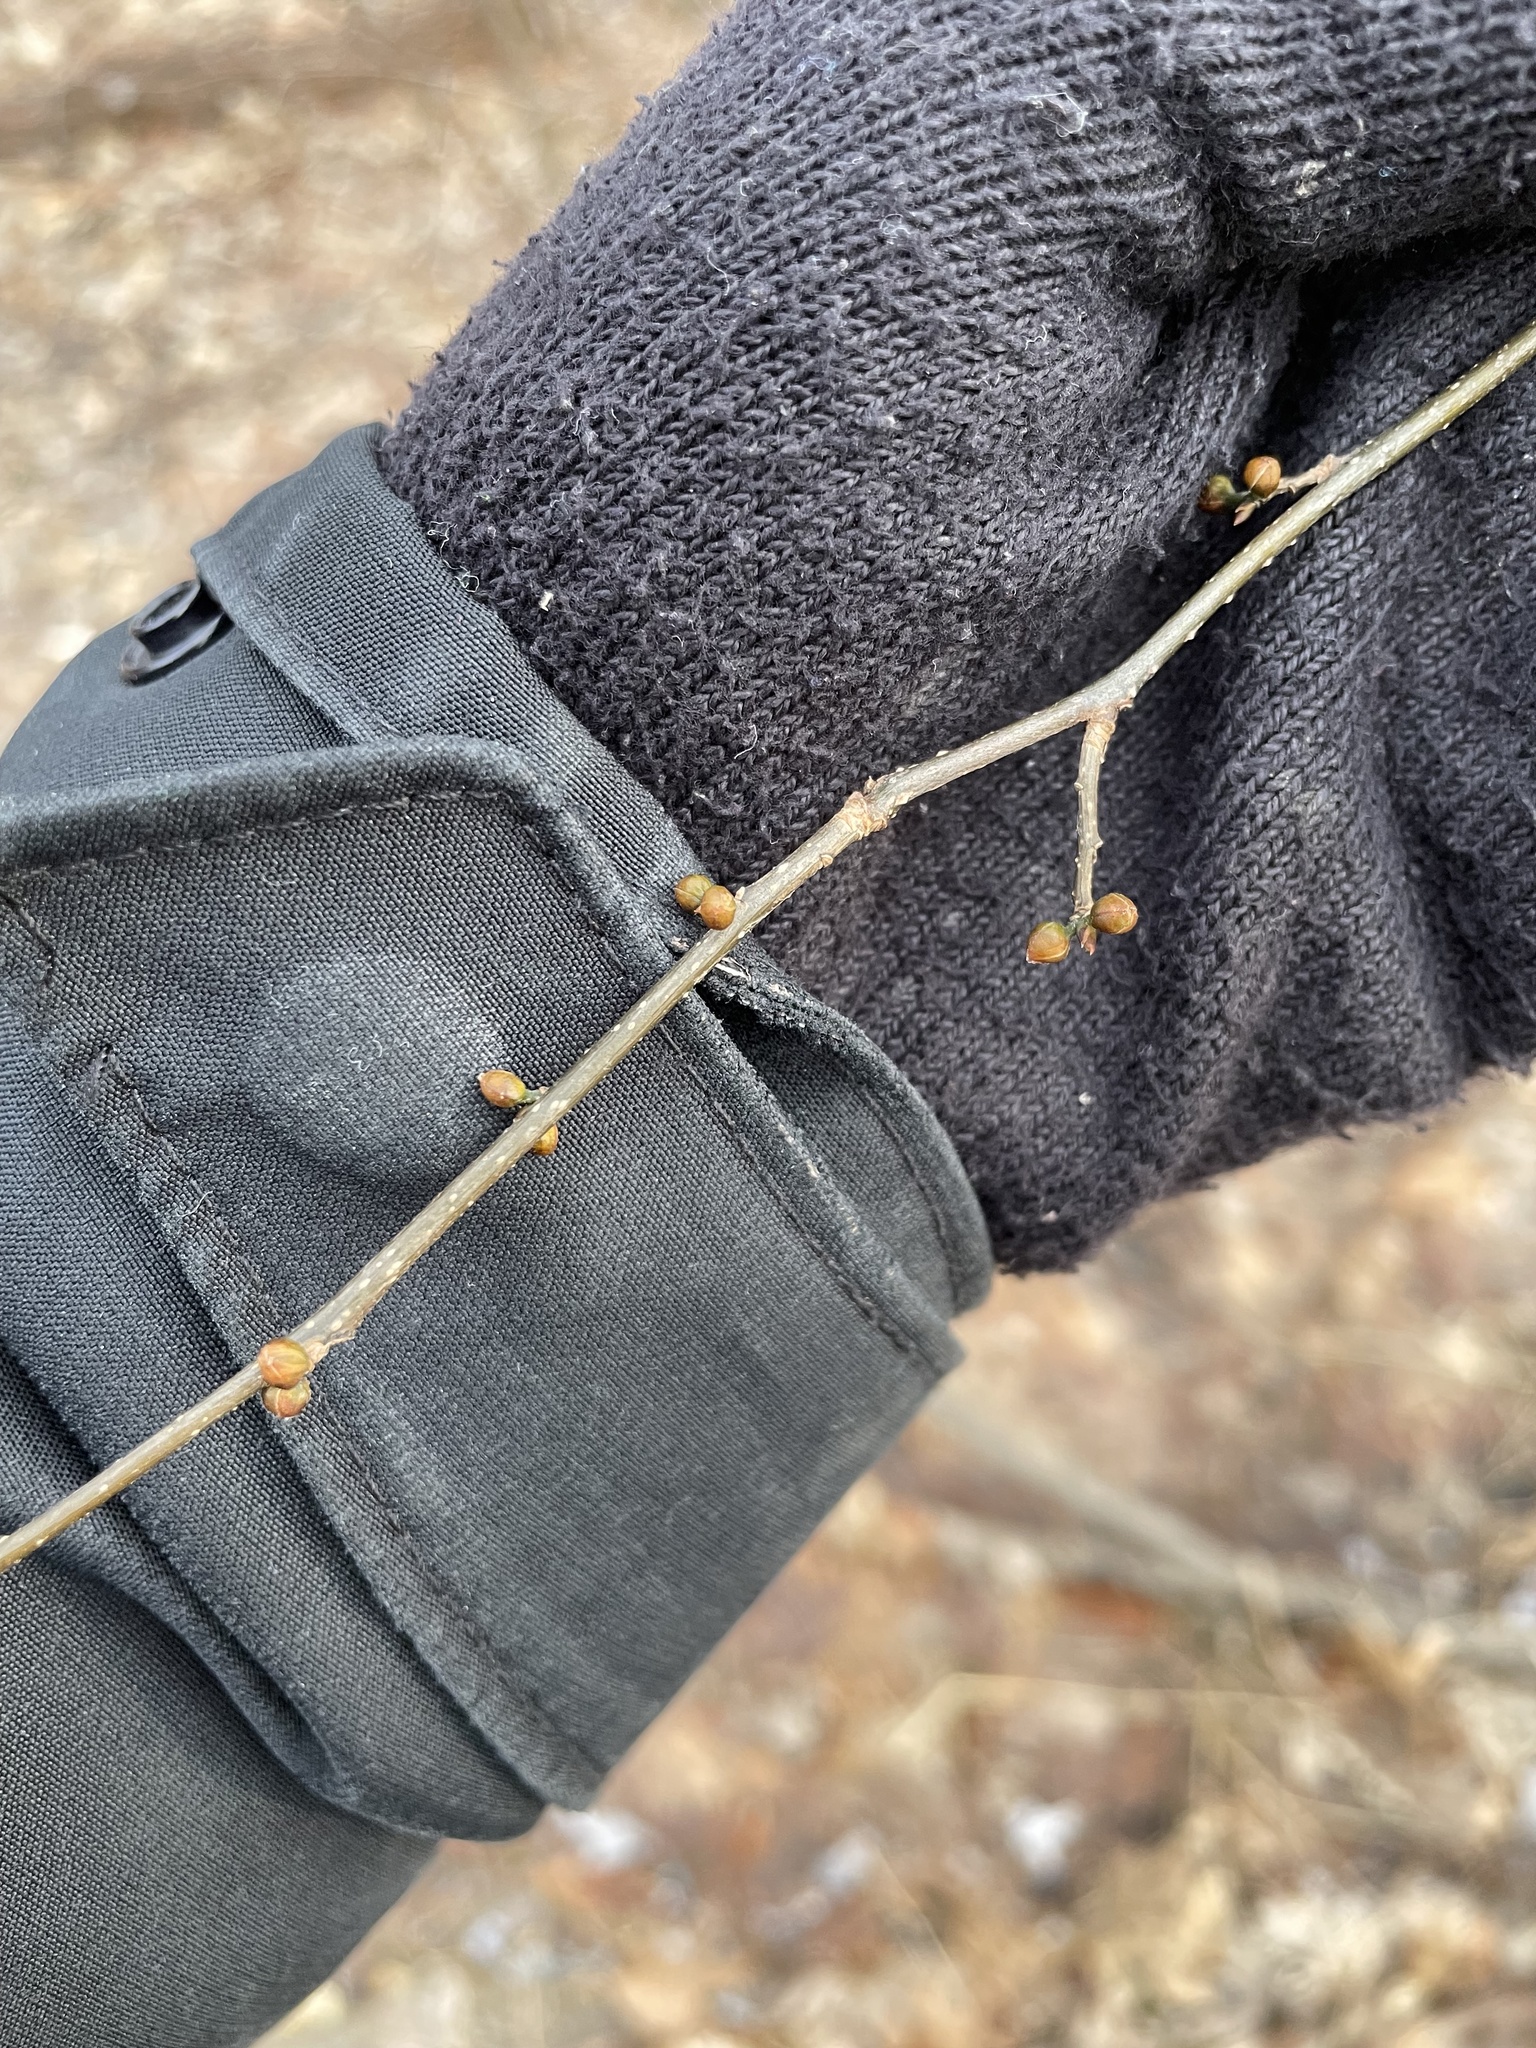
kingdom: Plantae
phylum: Tracheophyta
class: Magnoliopsida
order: Laurales
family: Lauraceae
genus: Lindera
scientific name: Lindera benzoin
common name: Spicebush
